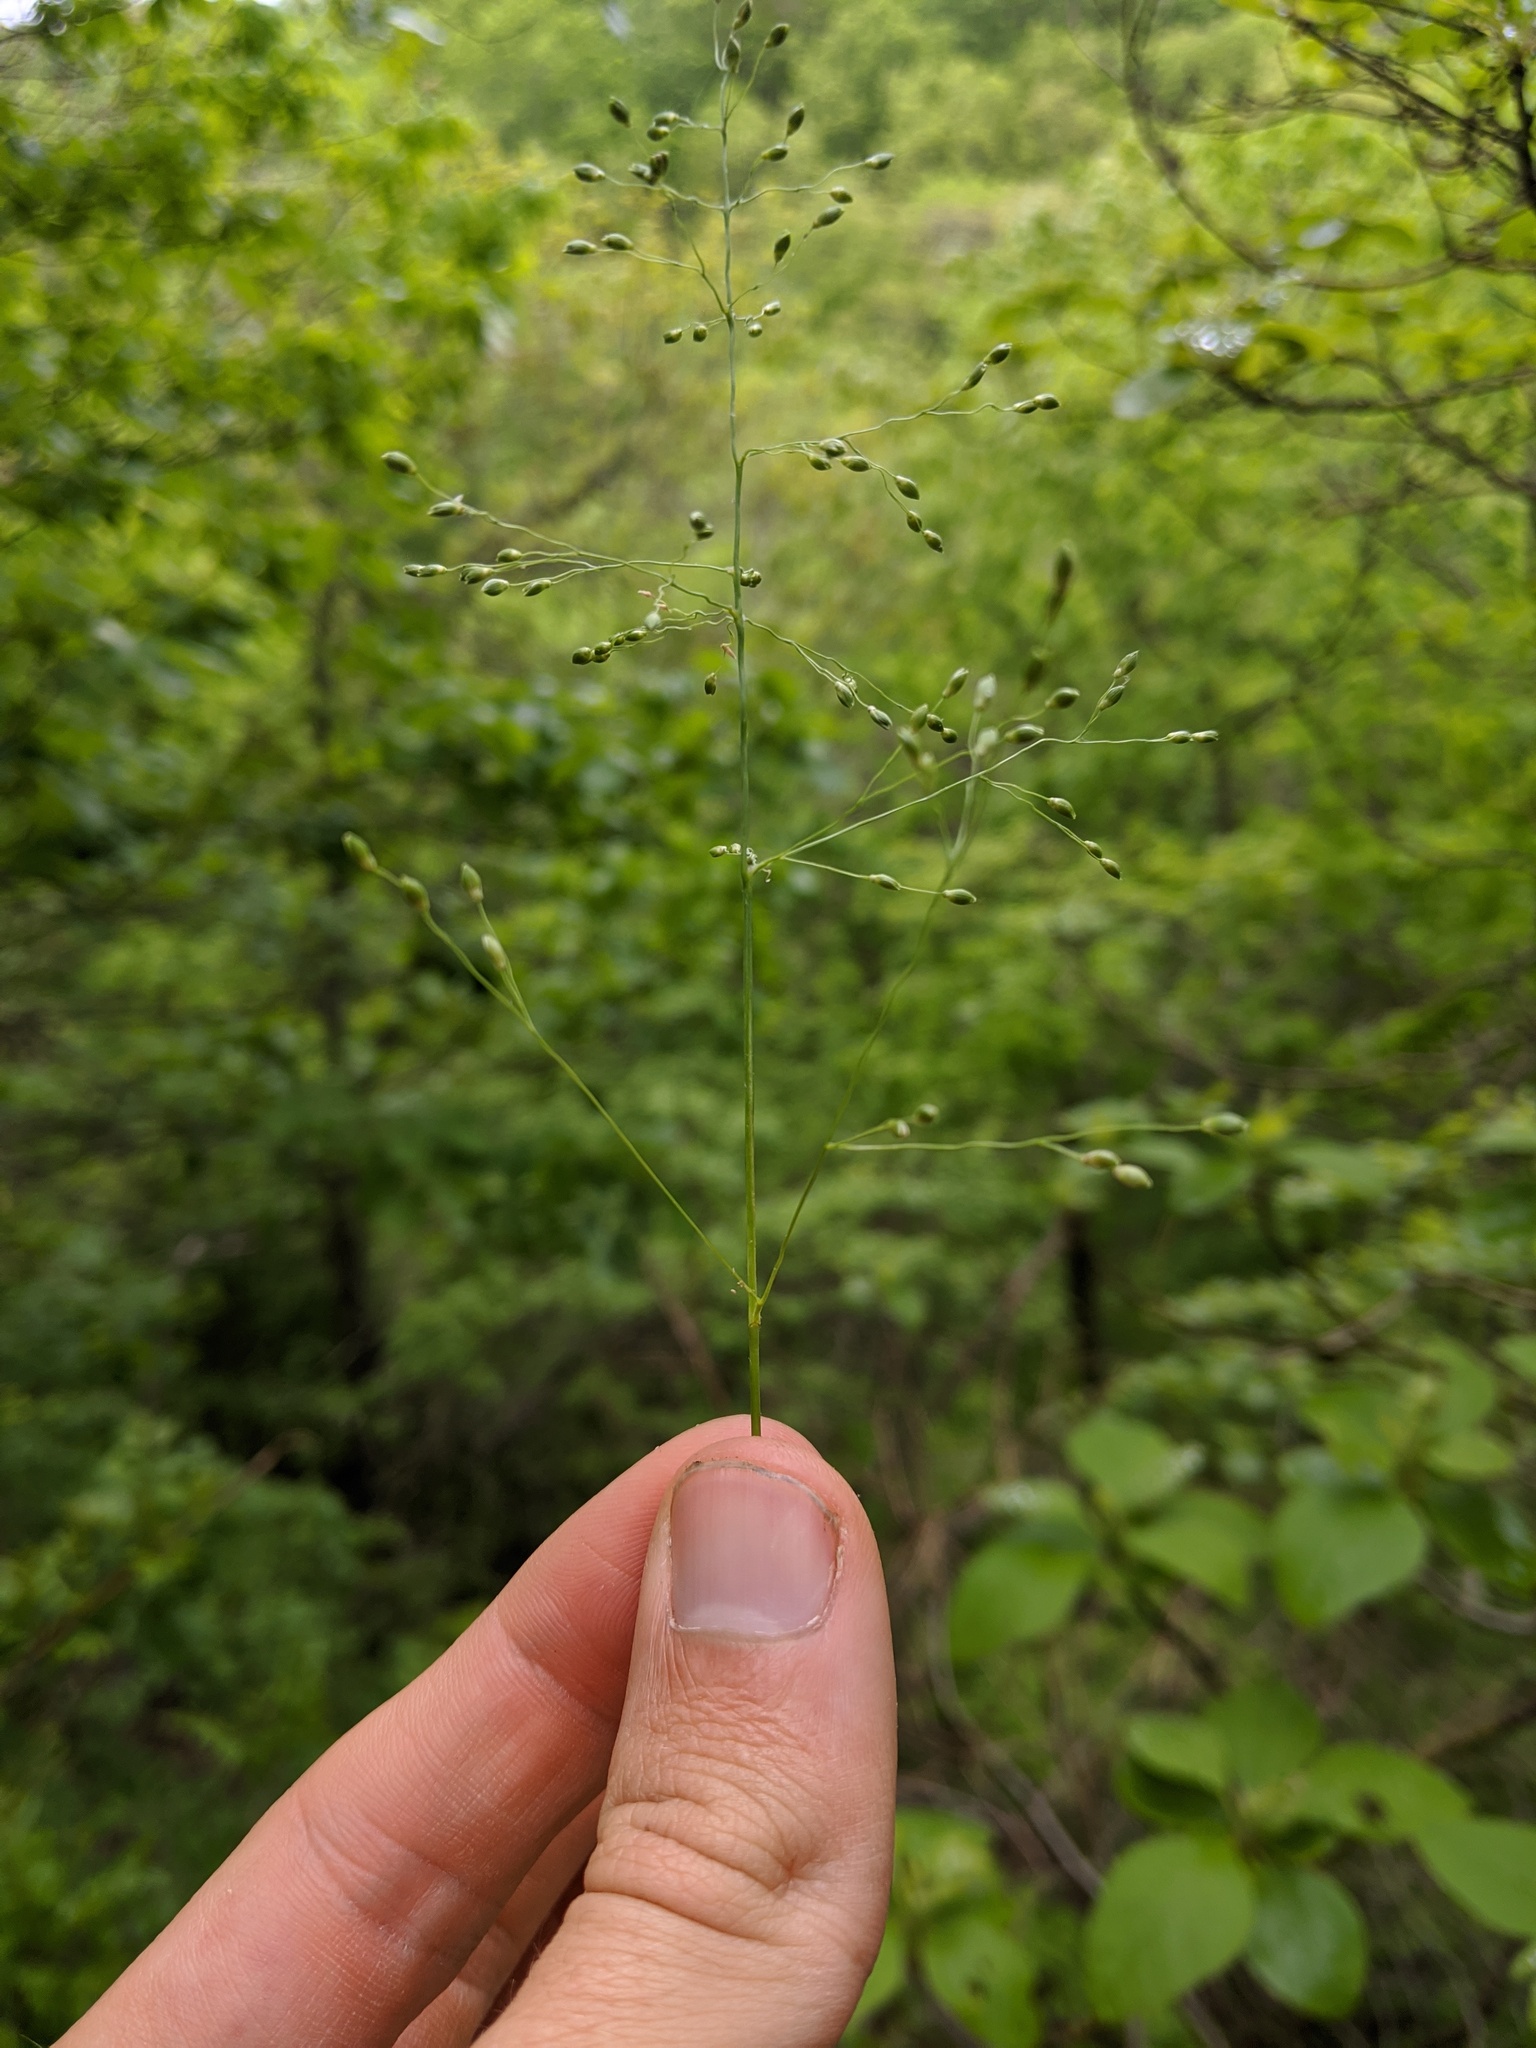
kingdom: Plantae
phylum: Tracheophyta
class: Liliopsida
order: Poales
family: Poaceae
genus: Dichanthelium
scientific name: Dichanthelium linearifolium
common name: Linear-leaved panicgrass
